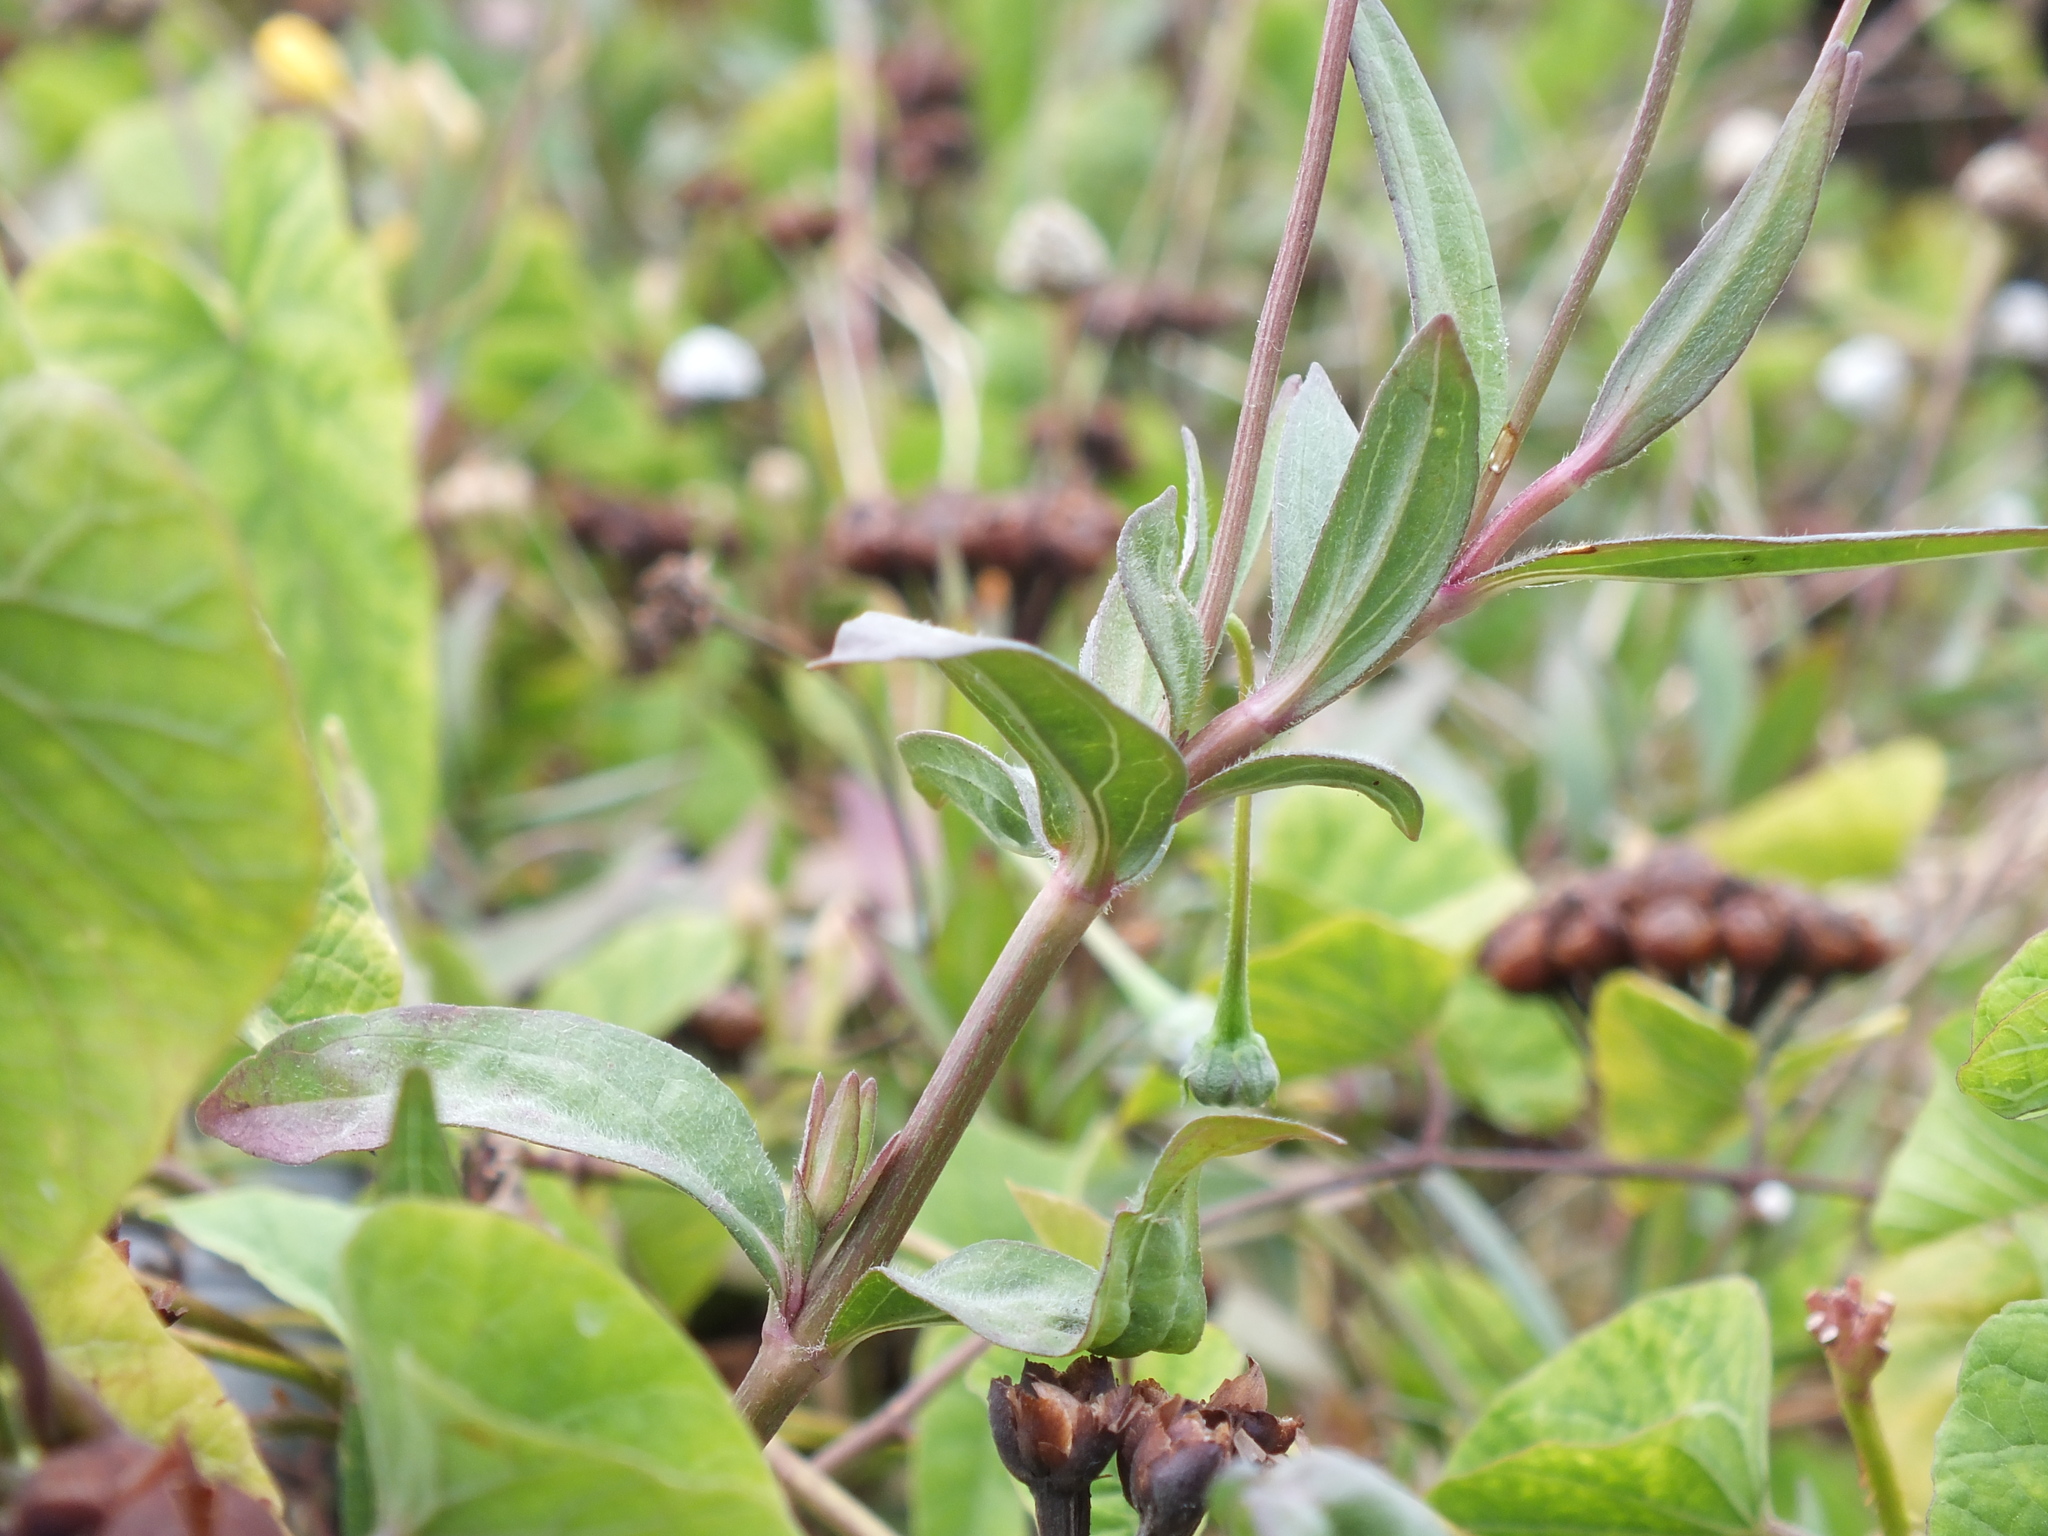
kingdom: Plantae
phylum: Tracheophyta
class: Magnoliopsida
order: Asterales
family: Asteraceae
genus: Spilanthes
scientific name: Spilanthes urens
